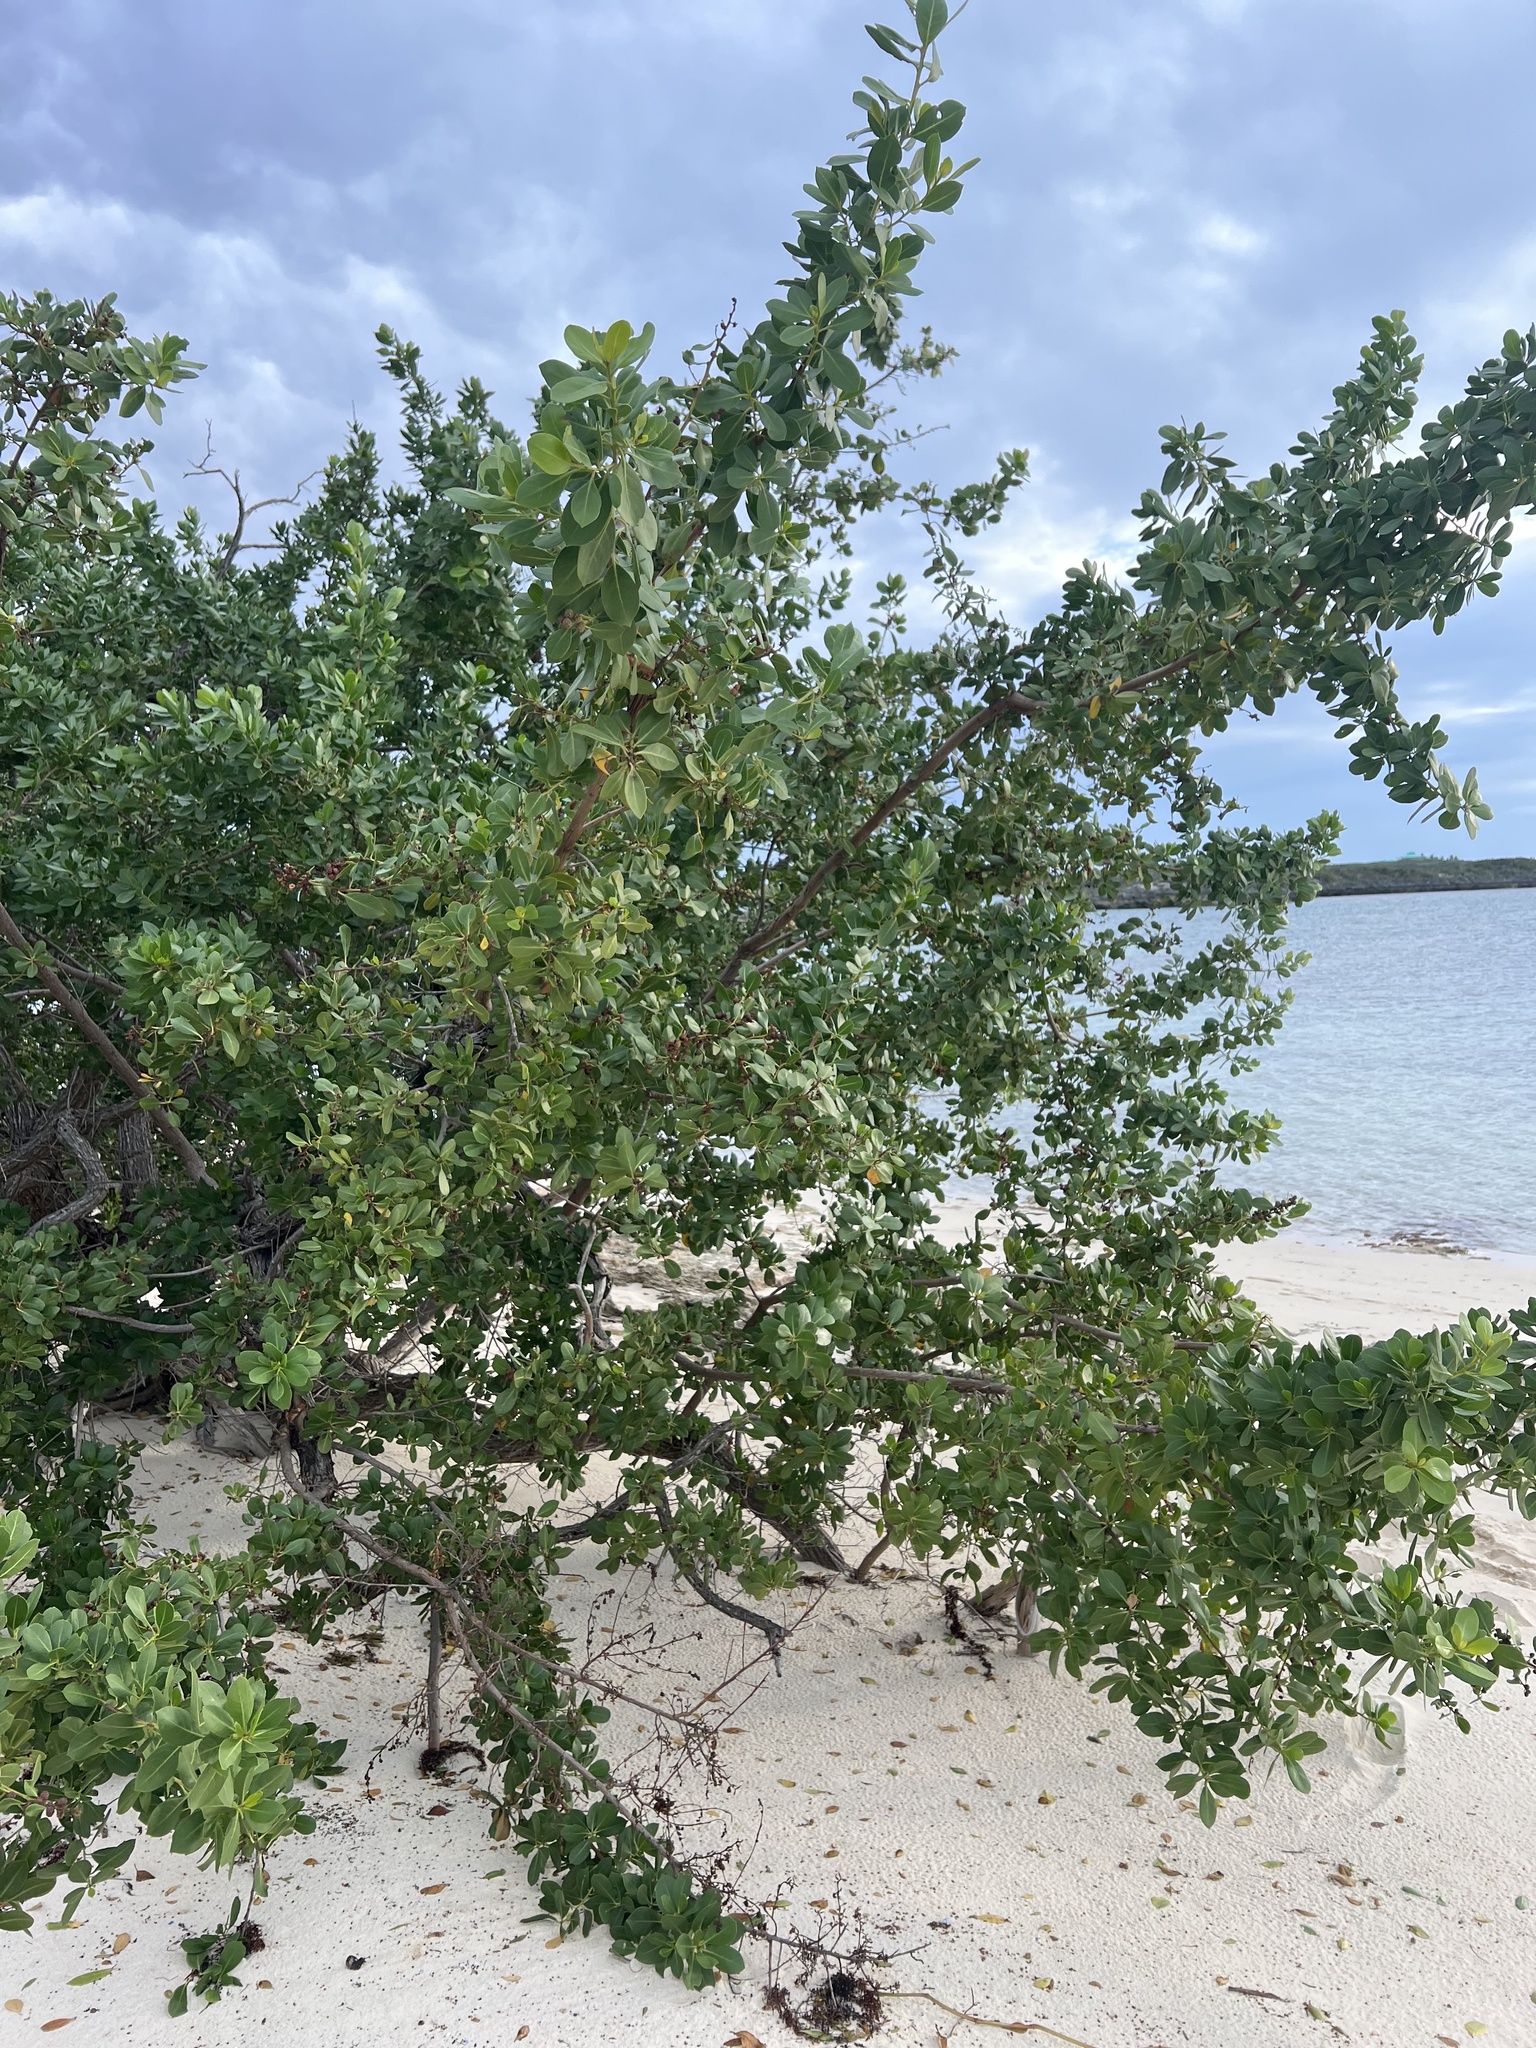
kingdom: Plantae
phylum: Tracheophyta
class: Magnoliopsida
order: Myrtales
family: Combretaceae
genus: Conocarpus
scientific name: Conocarpus erectus
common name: Button mangrove
